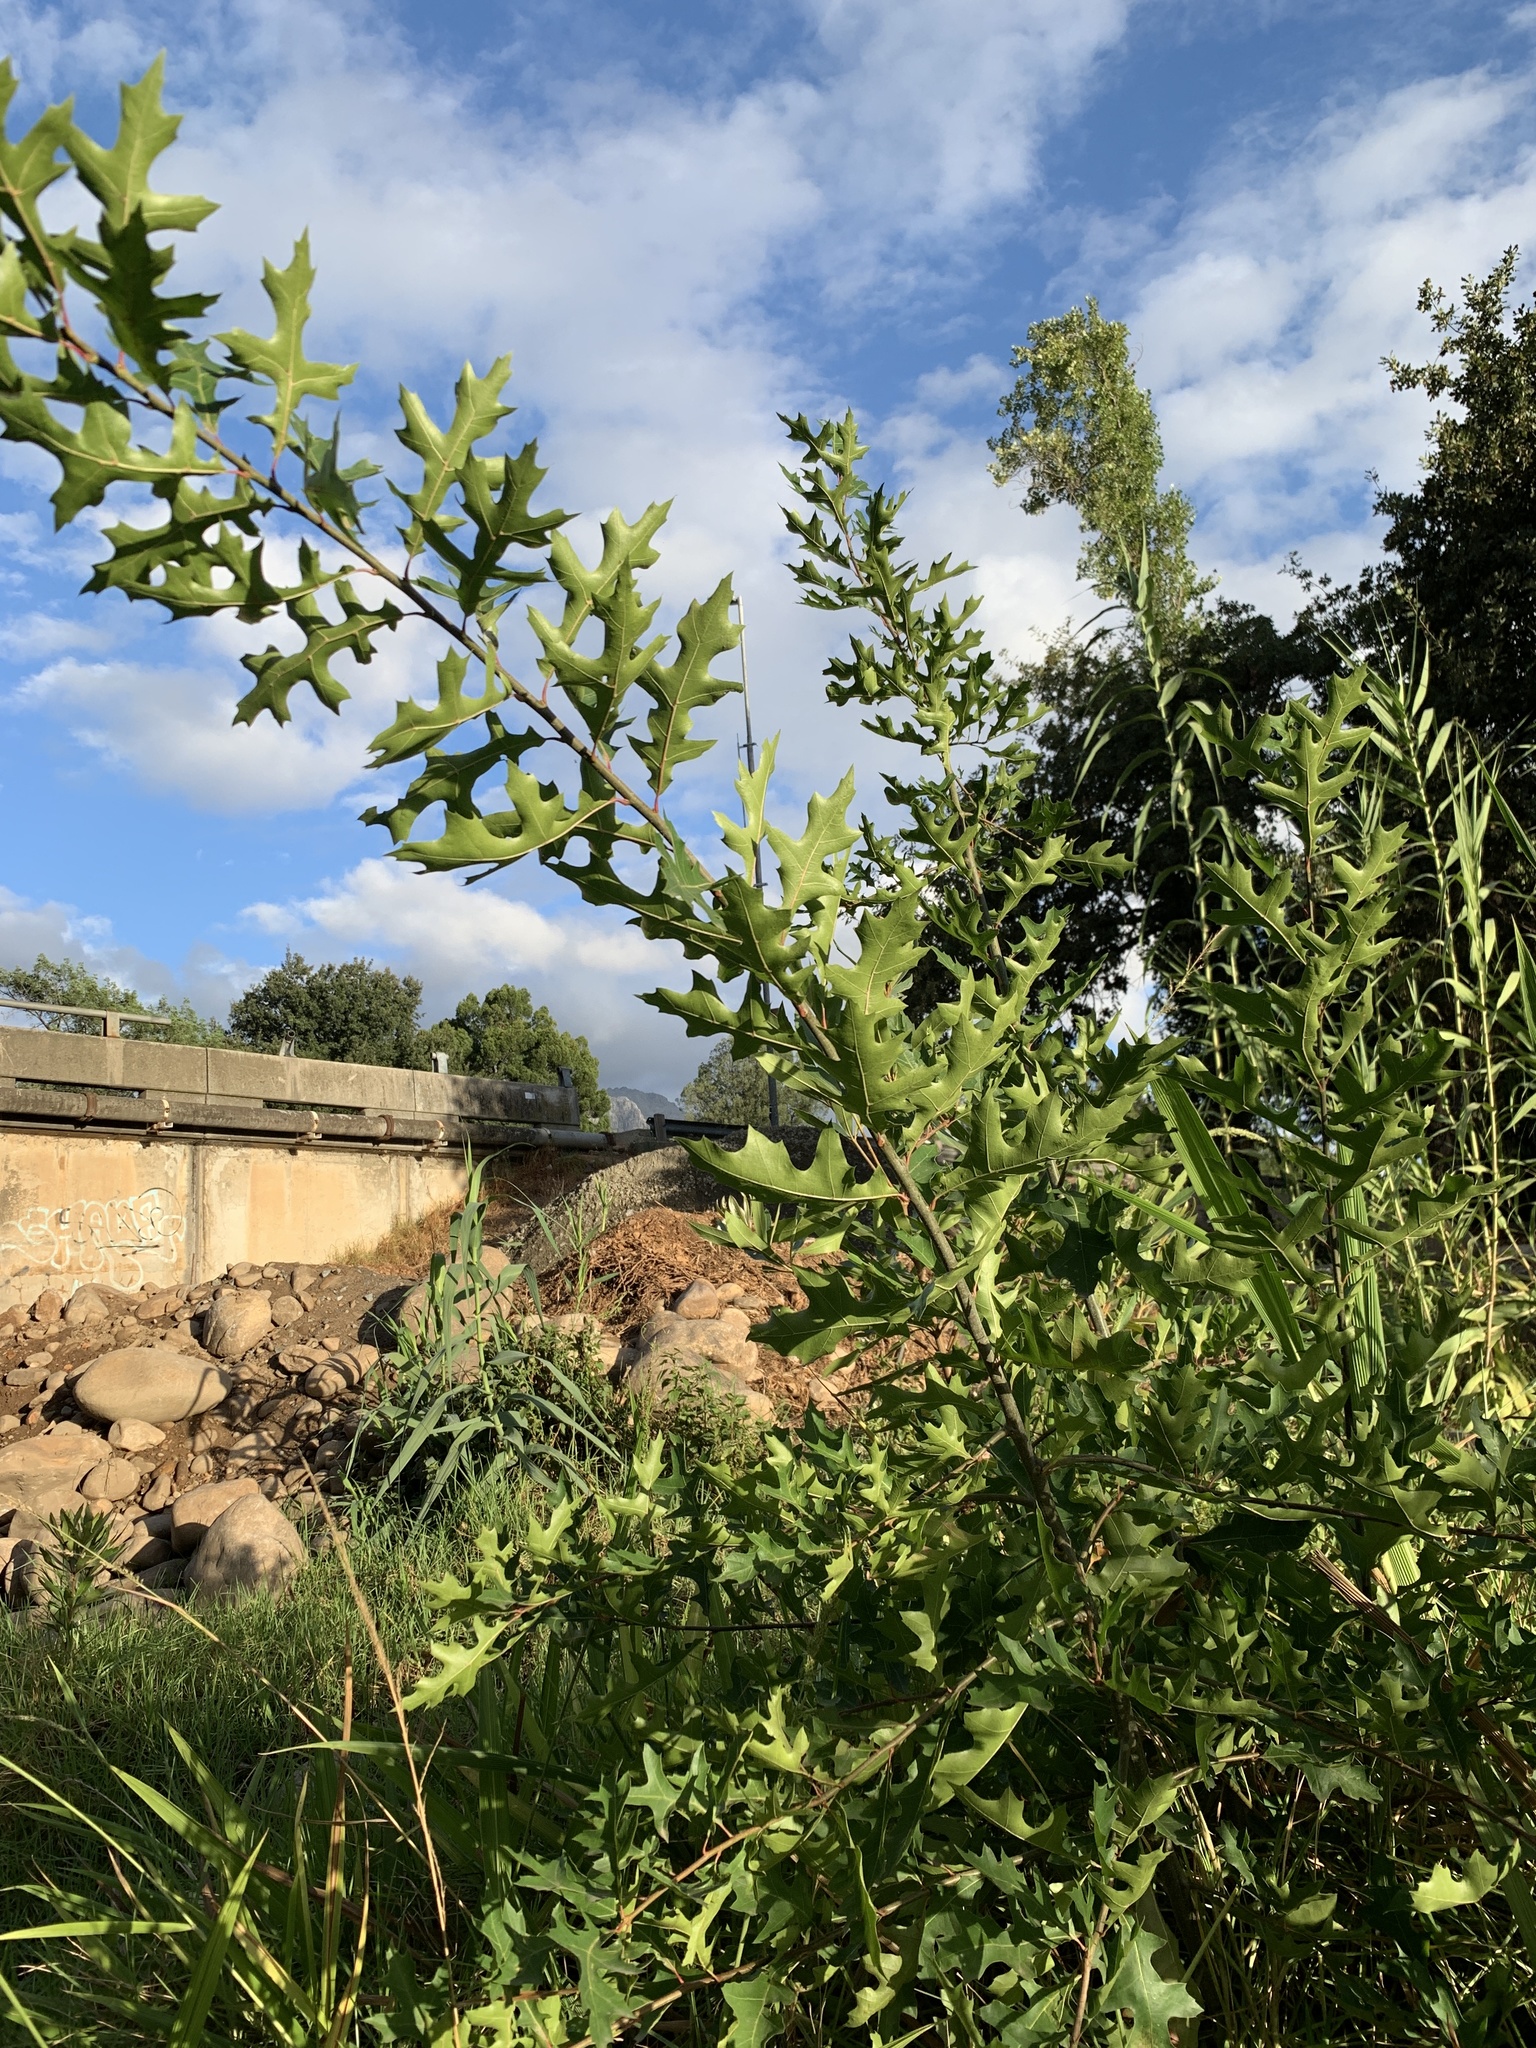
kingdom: Plantae
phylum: Tracheophyta
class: Magnoliopsida
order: Fagales
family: Fagaceae
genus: Quercus
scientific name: Quercus palustris
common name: Pin oak
